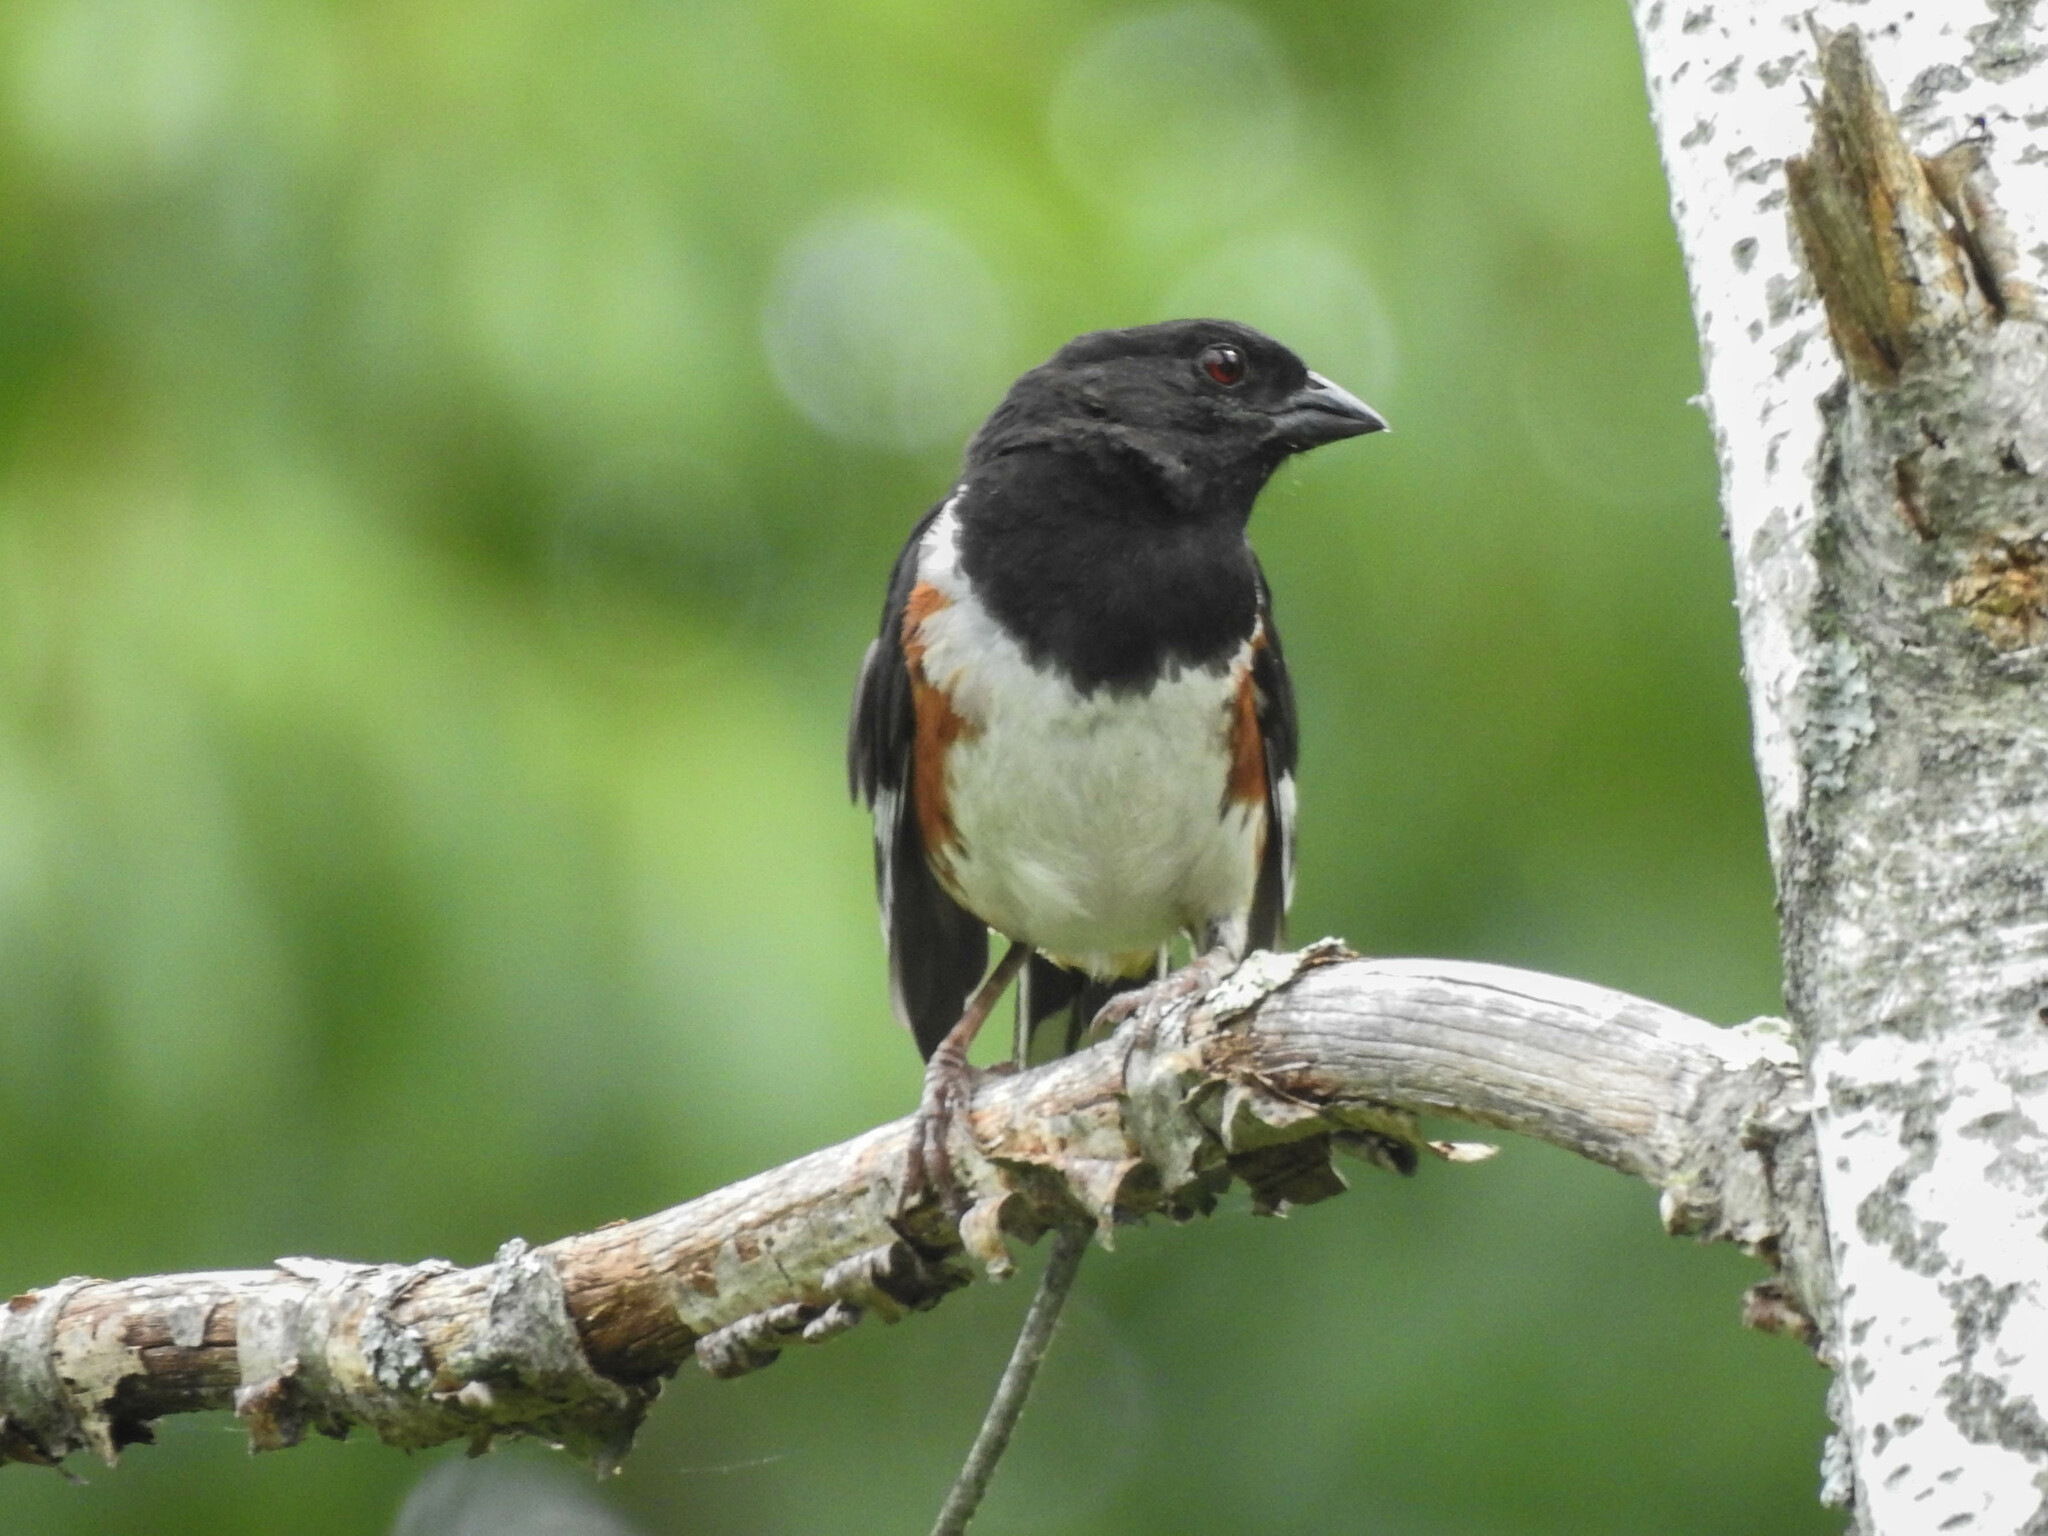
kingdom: Animalia
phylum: Chordata
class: Aves
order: Passeriformes
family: Passerellidae
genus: Pipilo
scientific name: Pipilo erythrophthalmus
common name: Eastern towhee
